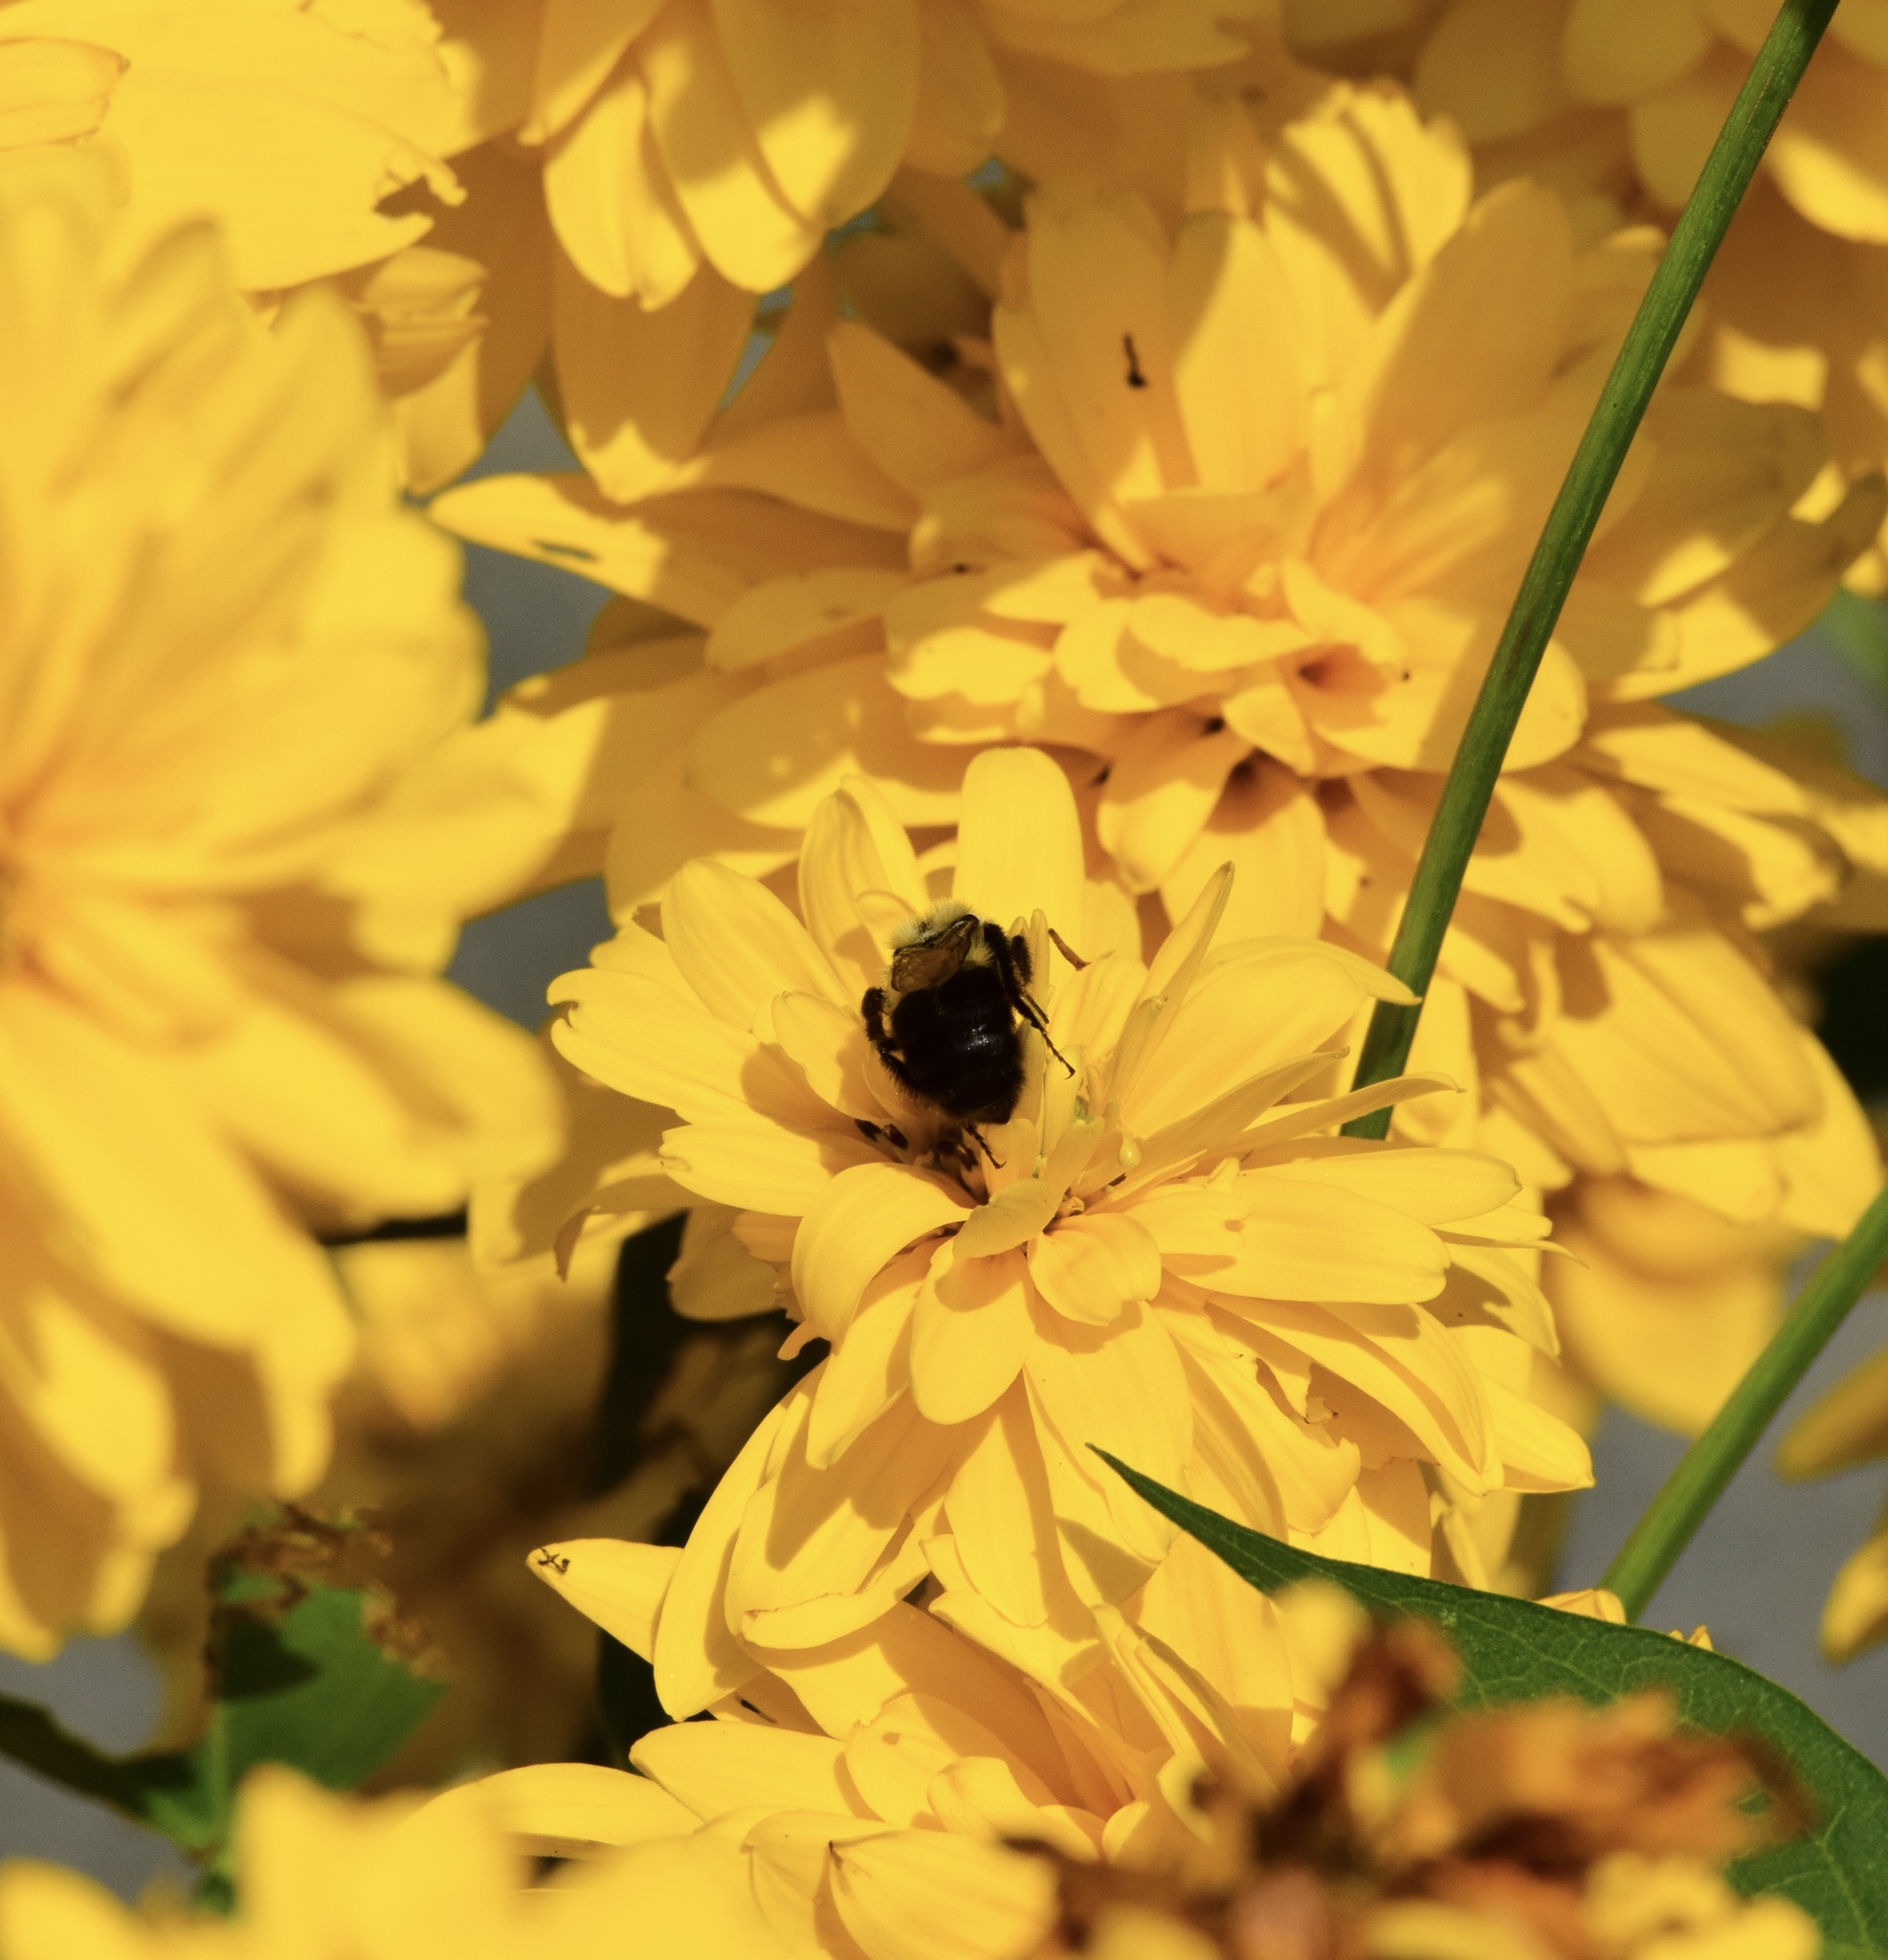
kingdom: Animalia
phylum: Arthropoda
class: Insecta
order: Hymenoptera
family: Apidae
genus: Bombus
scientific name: Bombus impatiens
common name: Common eastern bumble bee
